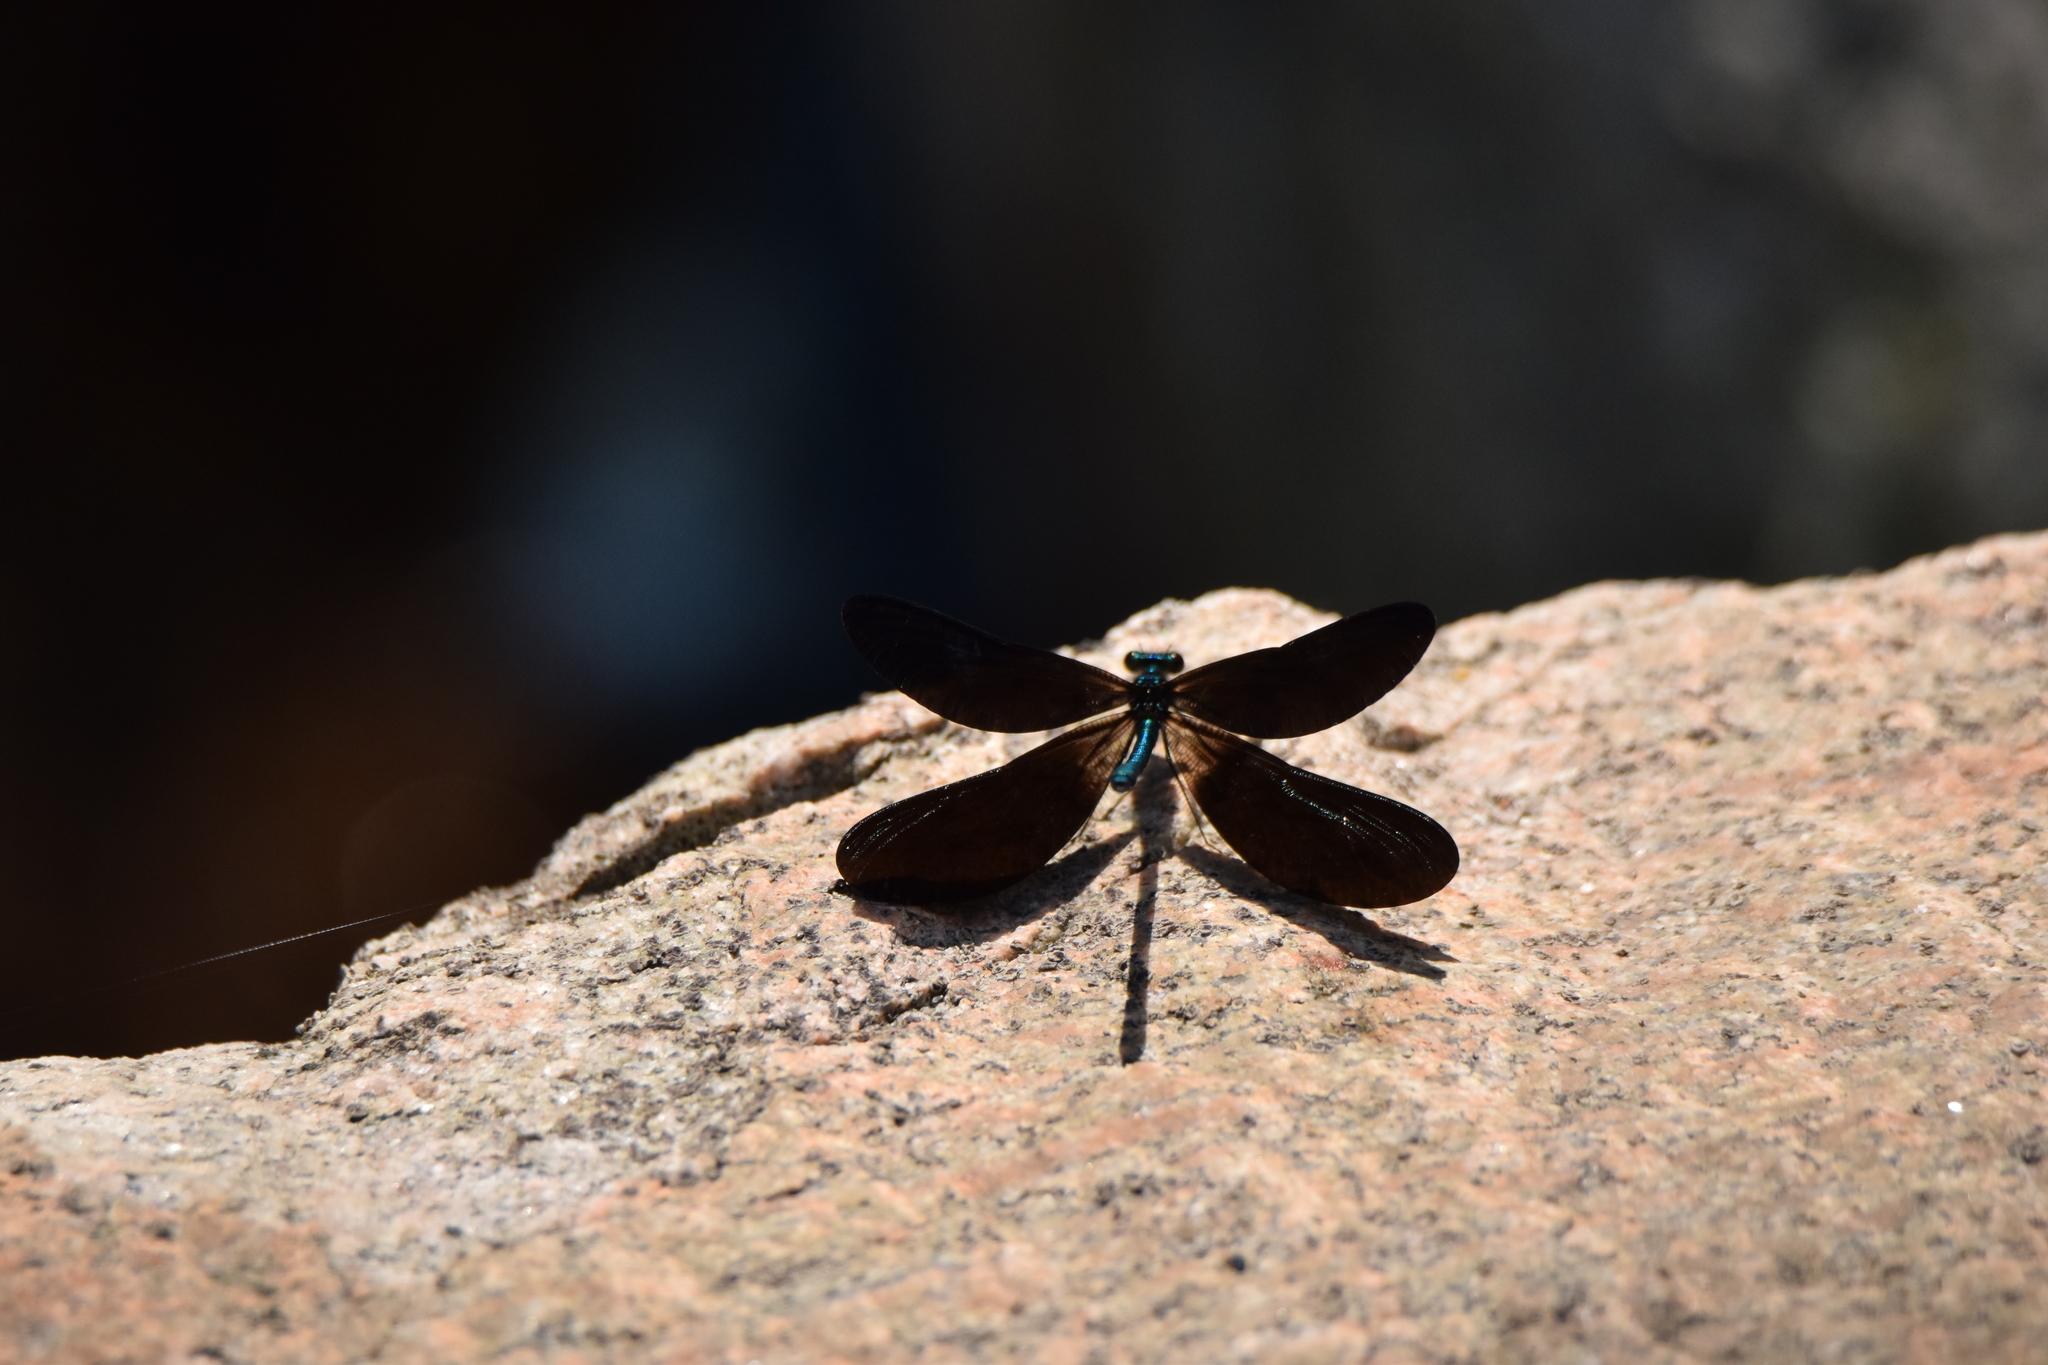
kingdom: Animalia
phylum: Arthropoda
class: Insecta
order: Odonata
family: Calopterygidae
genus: Calopteryx
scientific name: Calopteryx maculata
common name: Ebony jewelwing
